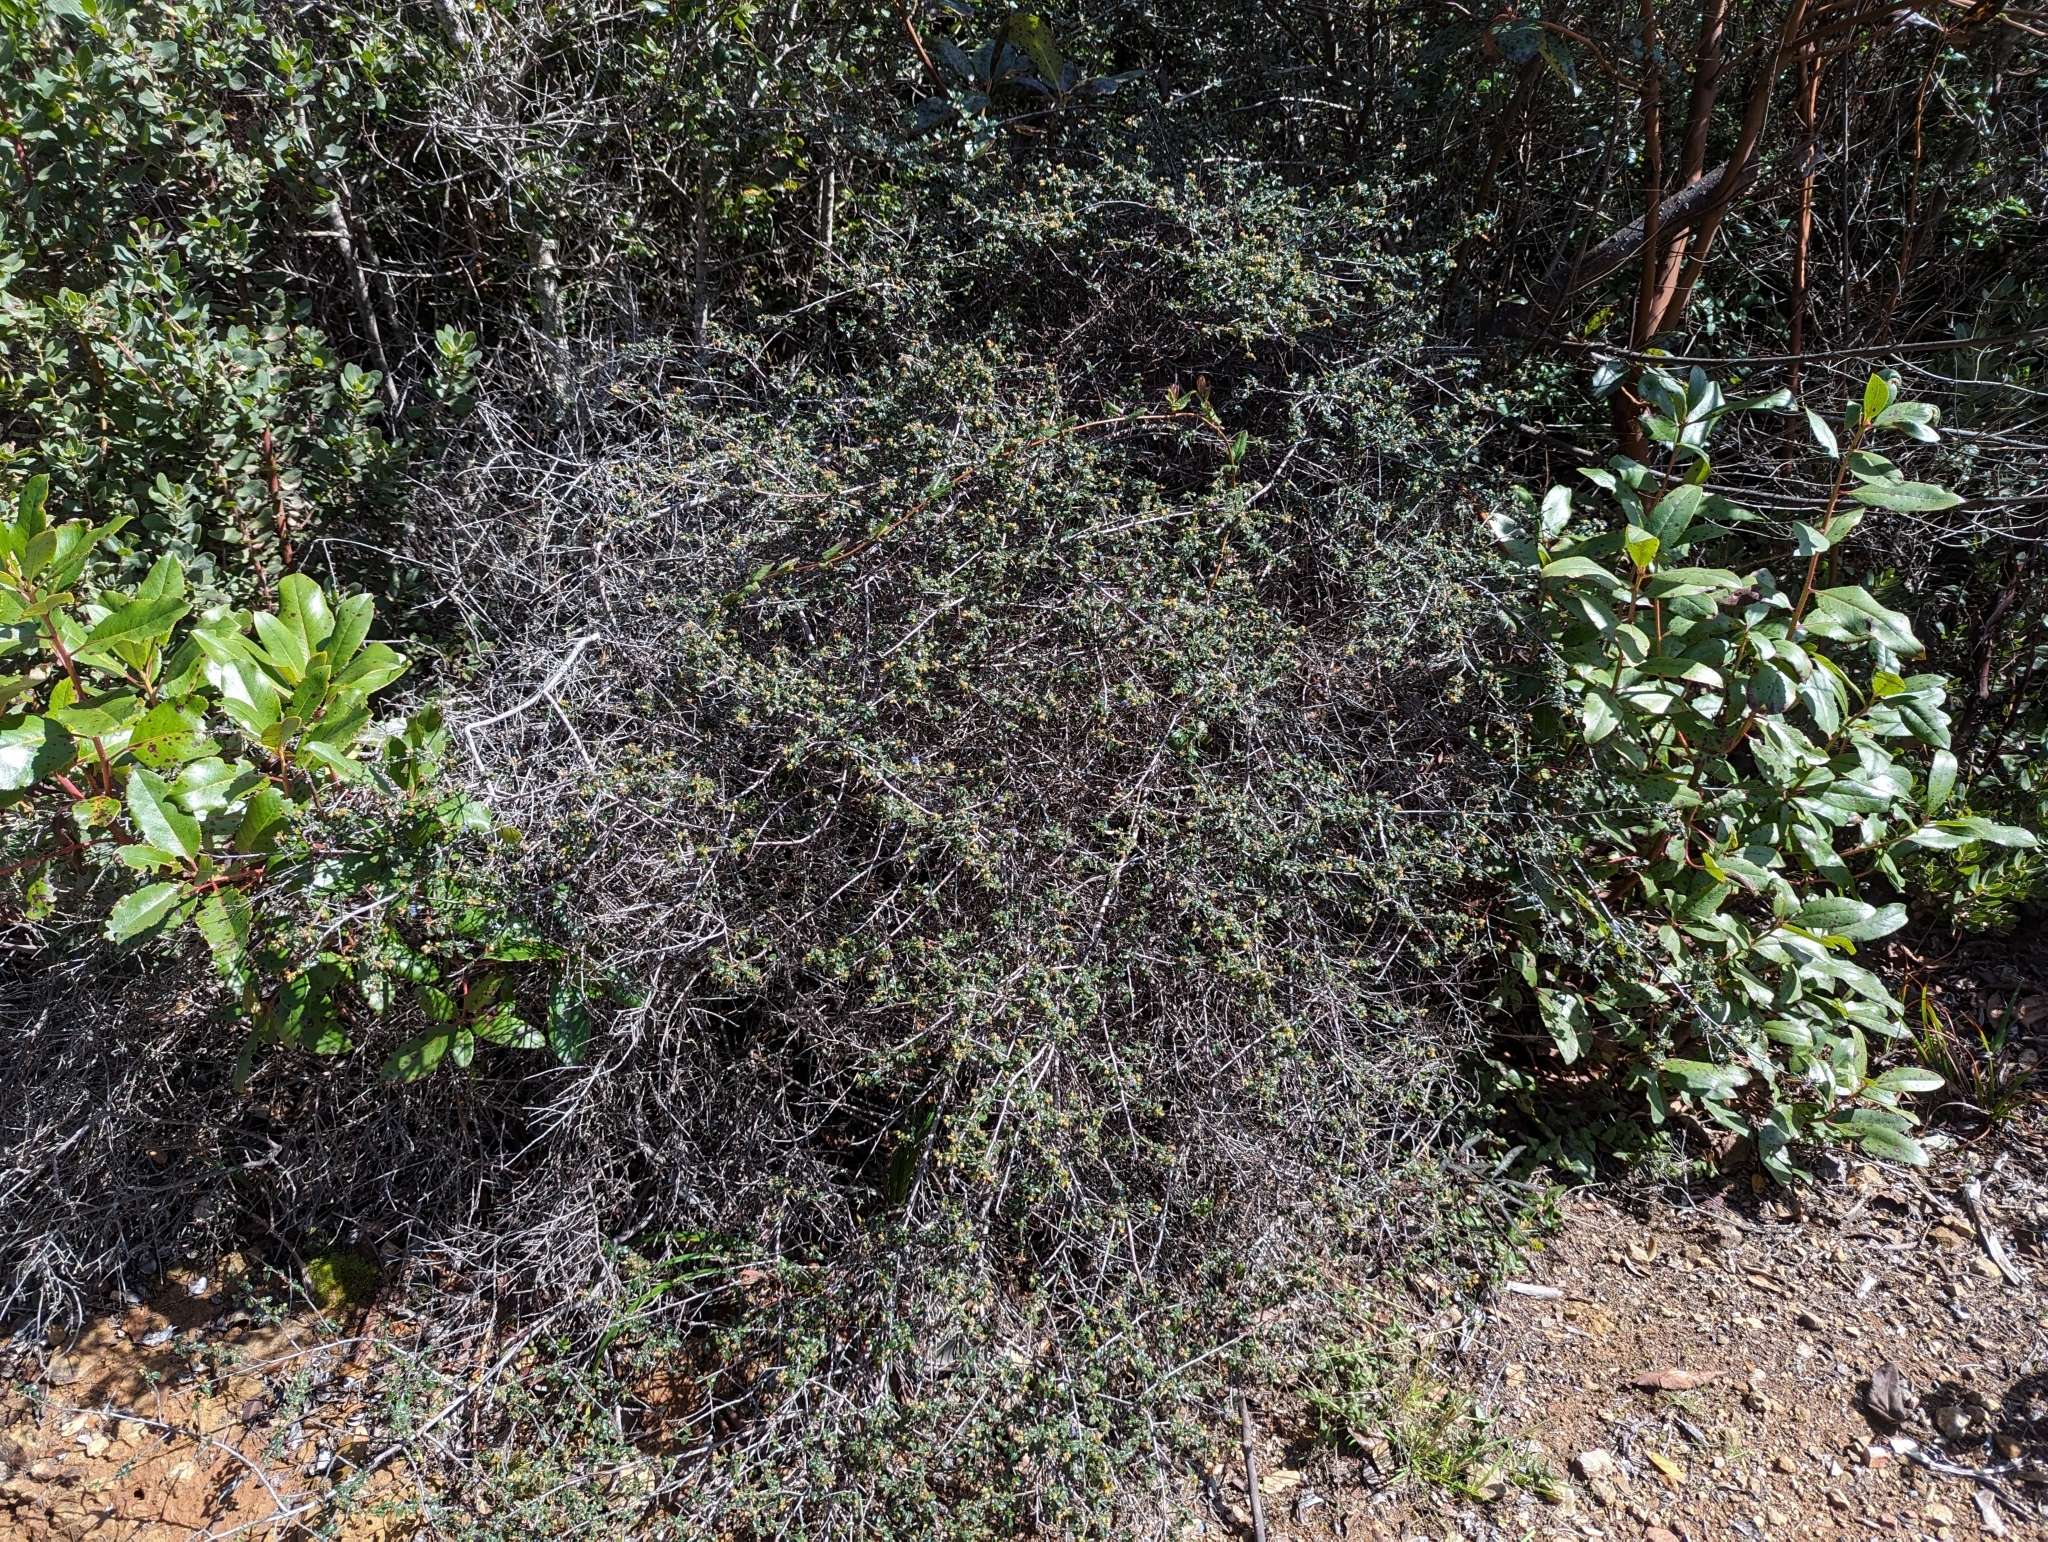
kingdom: Plantae
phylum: Tracheophyta
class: Magnoliopsida
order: Rosales
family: Rhamnaceae
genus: Ceanothus
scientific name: Ceanothus foliosus
